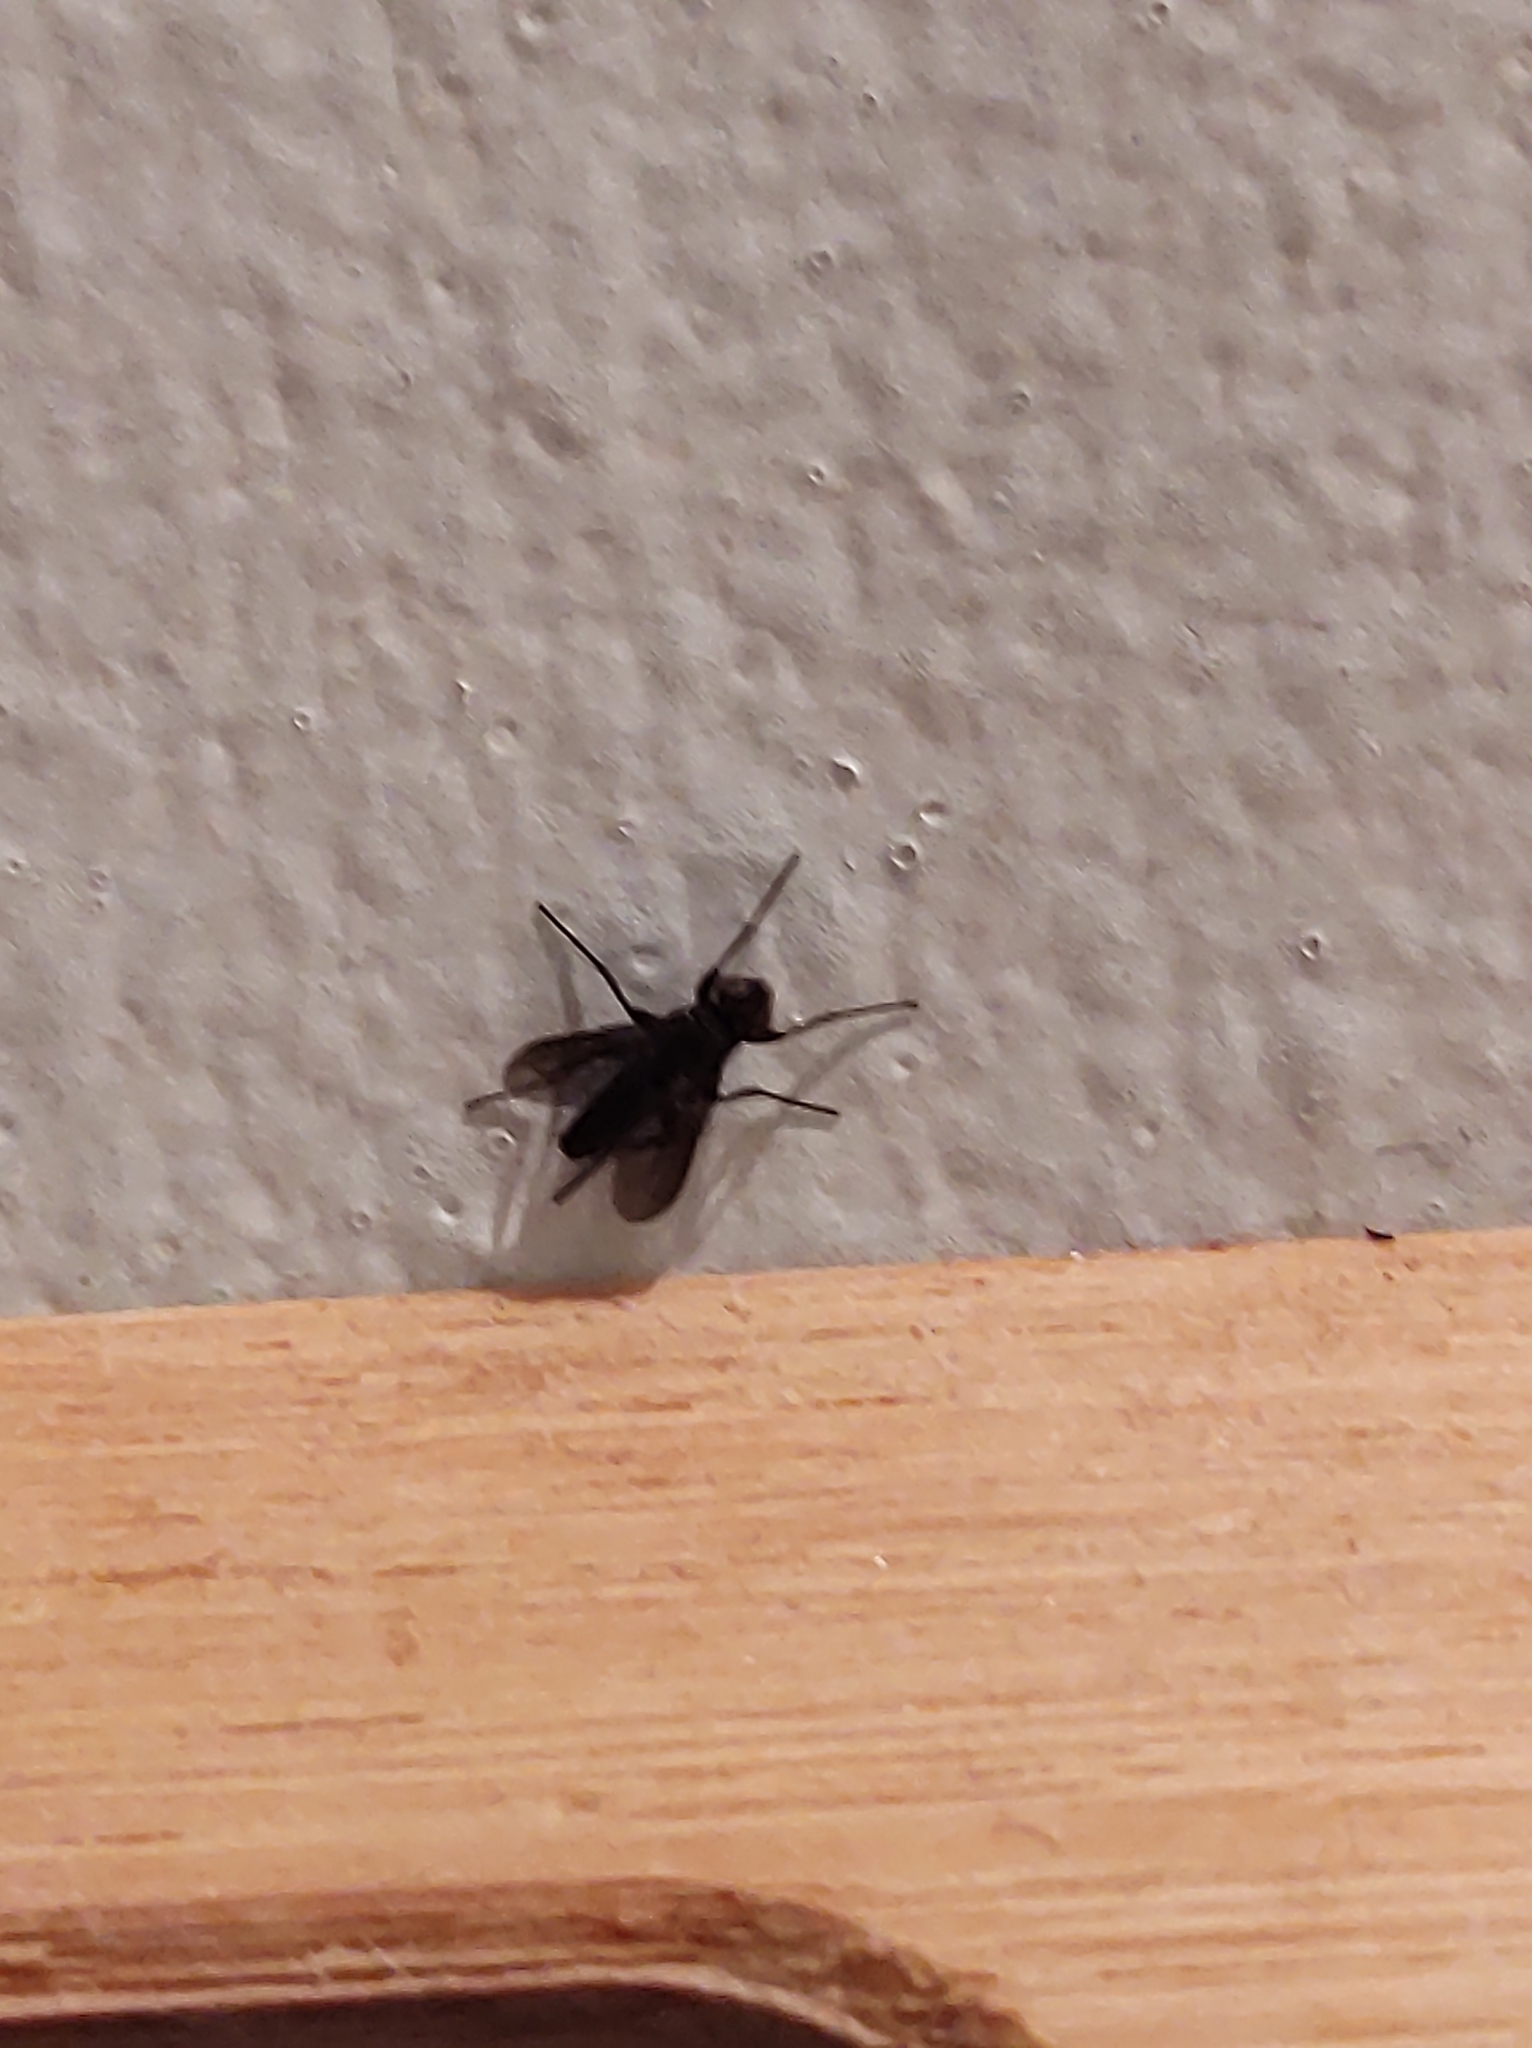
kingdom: Animalia
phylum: Arthropoda
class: Insecta
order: Diptera
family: Calliphoridae
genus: Melanophora
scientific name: Melanophora roralis
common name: Smoky-winged woodlouse-fly
